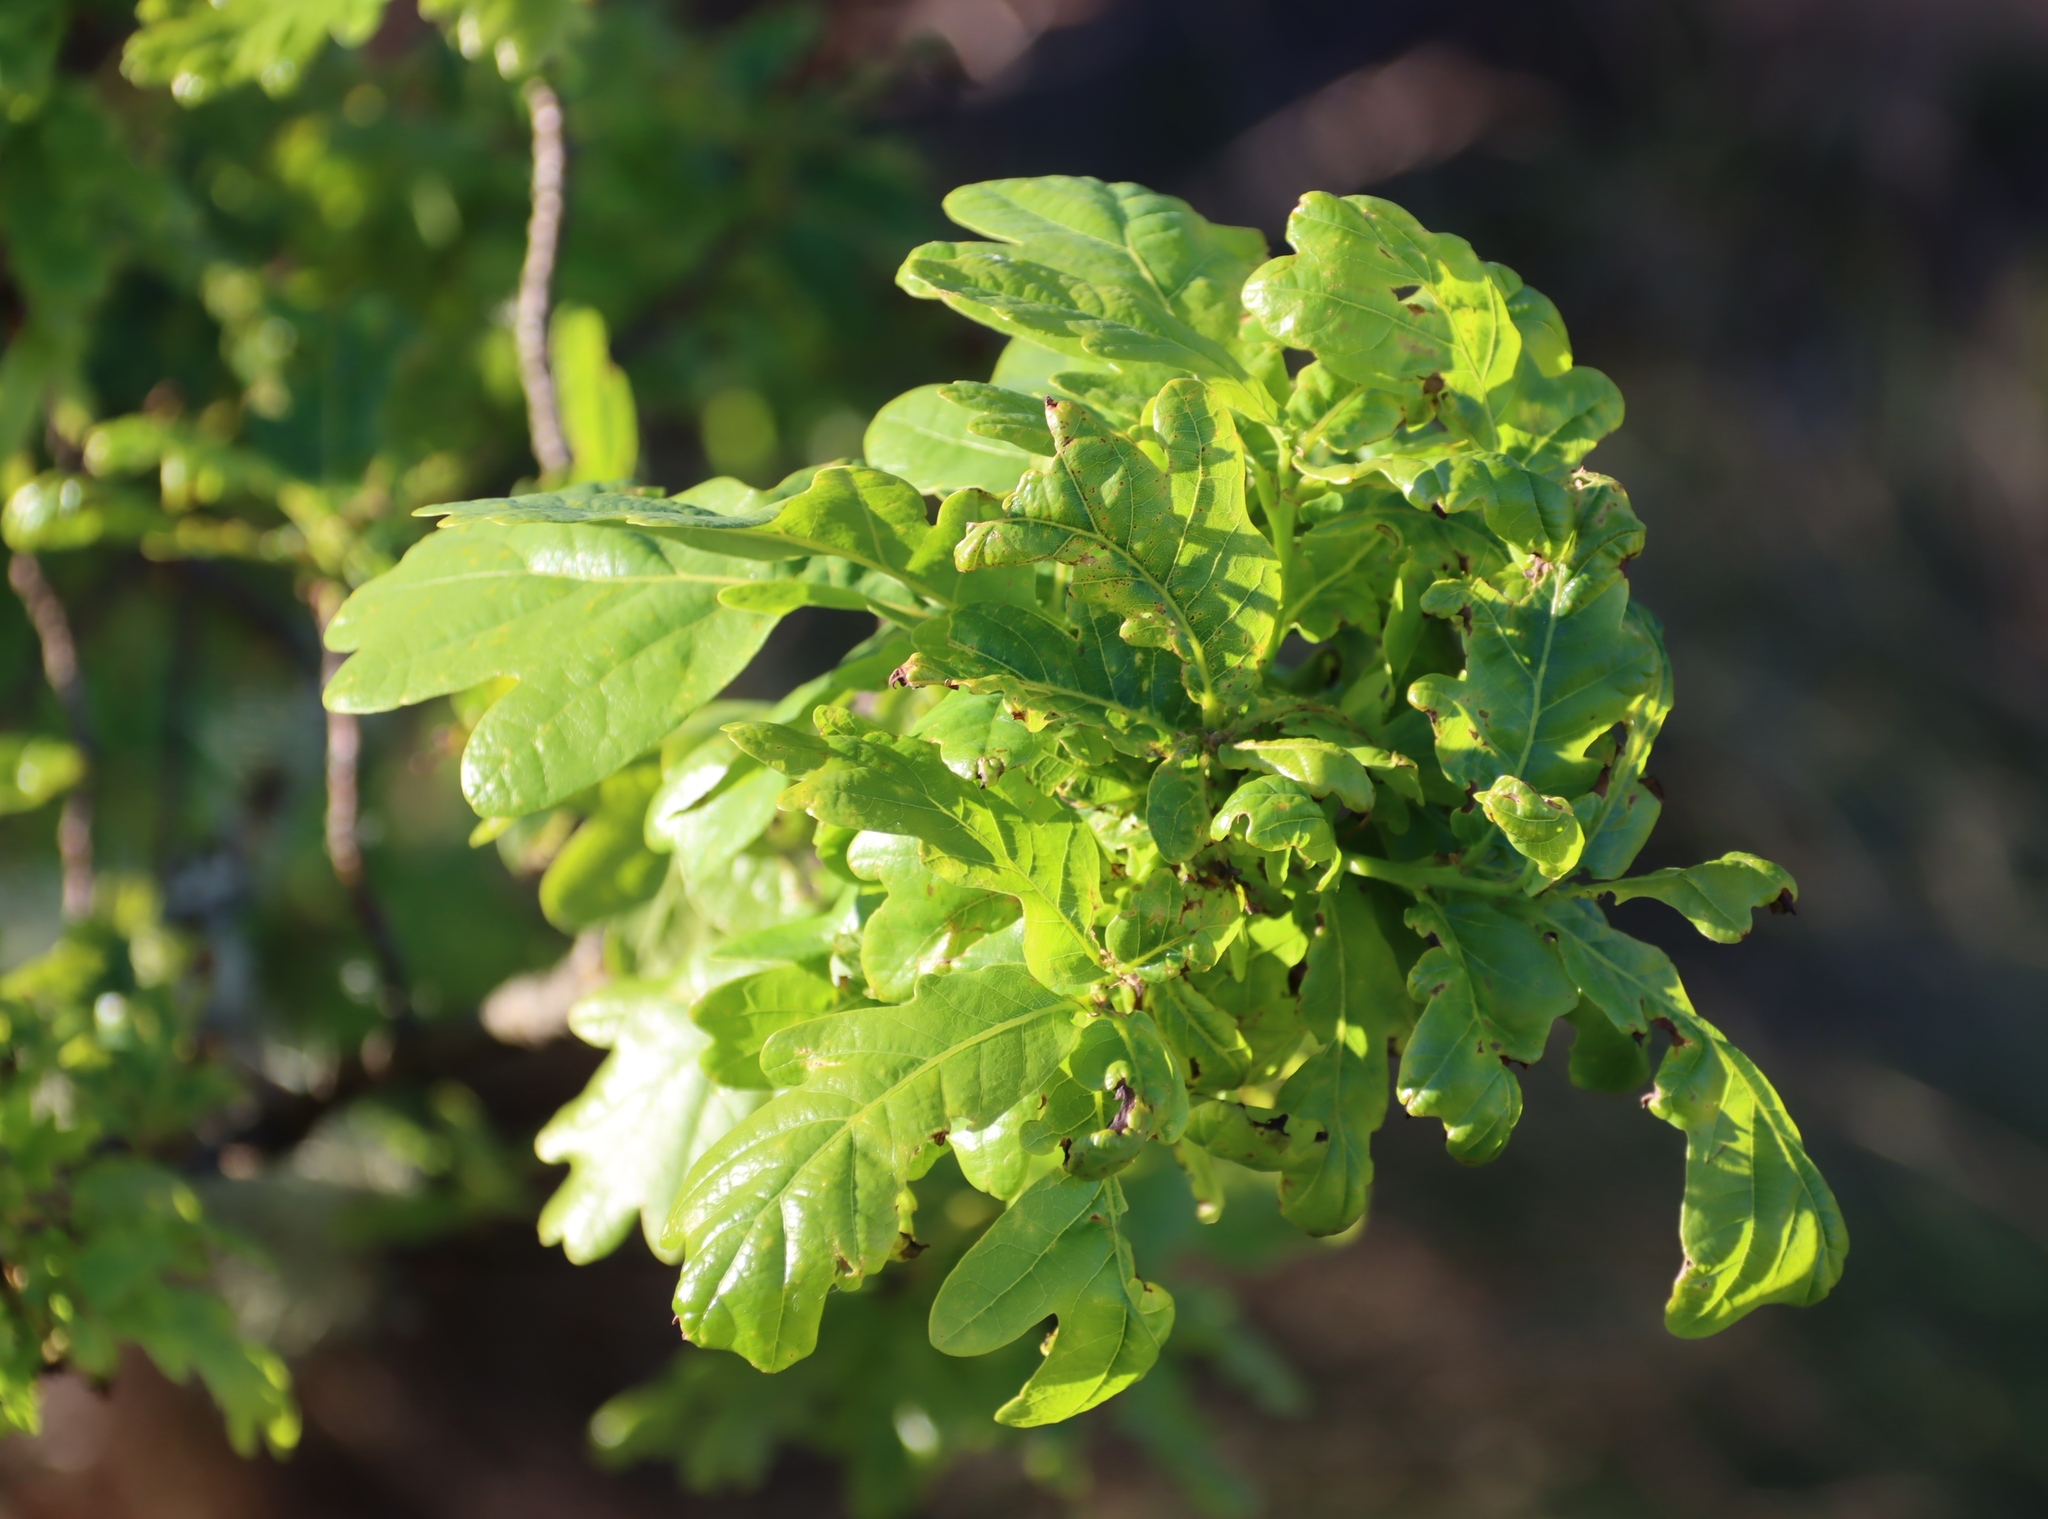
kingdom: Plantae
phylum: Tracheophyta
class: Magnoliopsida
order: Fagales
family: Fagaceae
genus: Quercus
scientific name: Quercus robur
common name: Pedunculate oak
